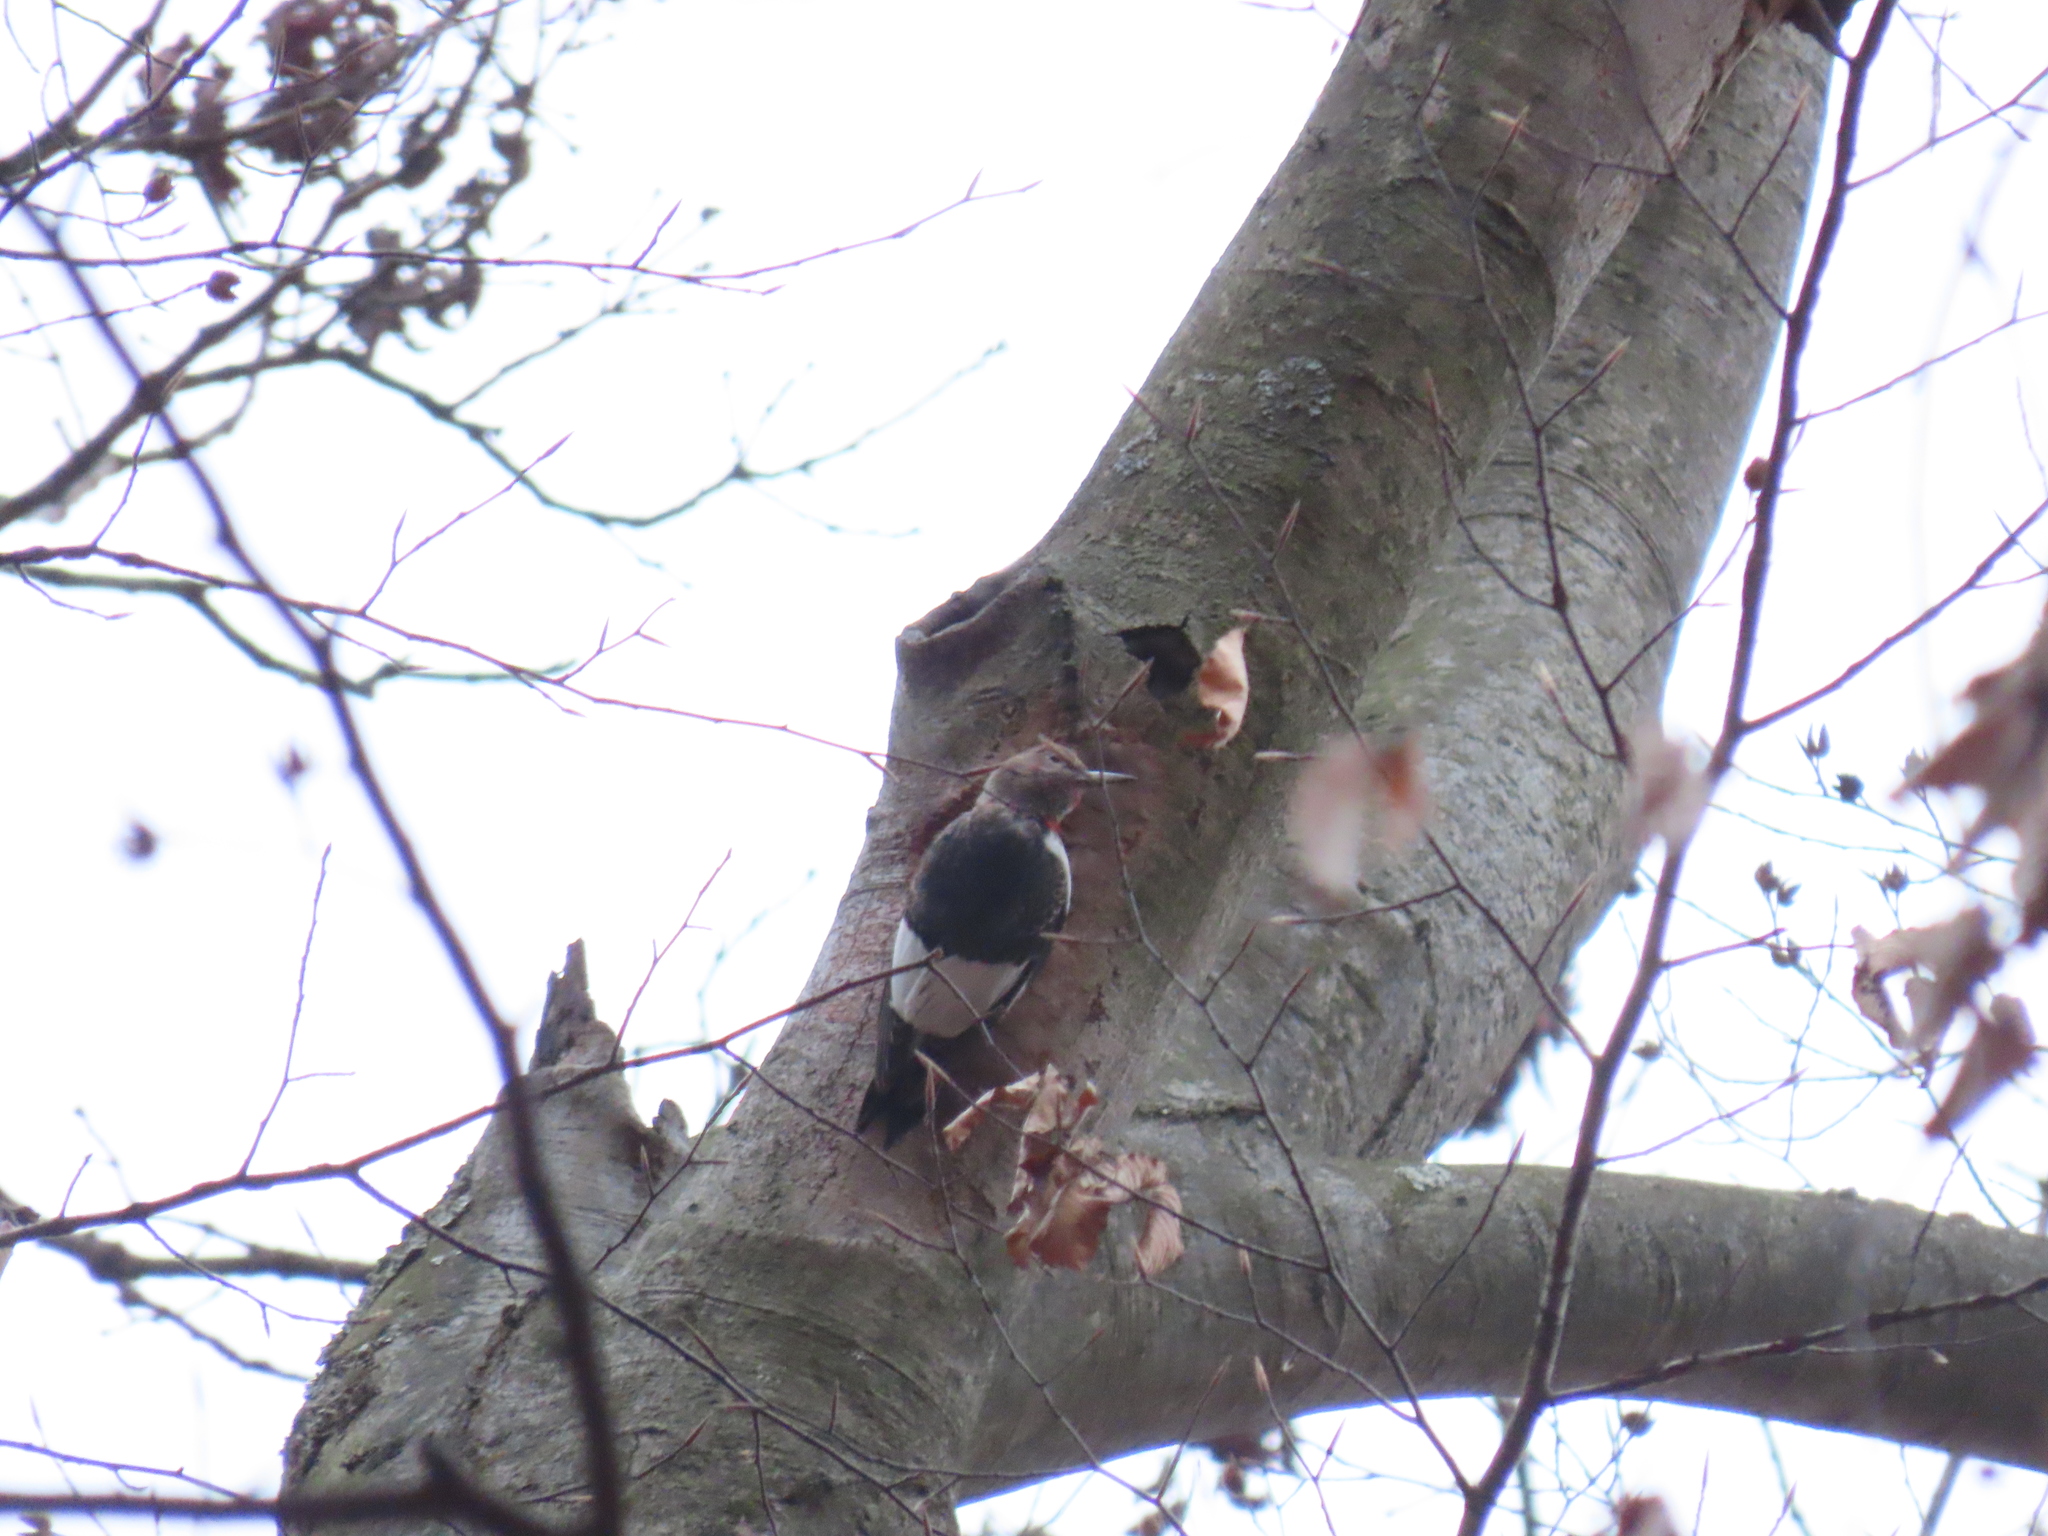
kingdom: Animalia
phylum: Chordata
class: Aves
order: Piciformes
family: Picidae
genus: Melanerpes
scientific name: Melanerpes erythrocephalus
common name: Red-headed woodpecker
